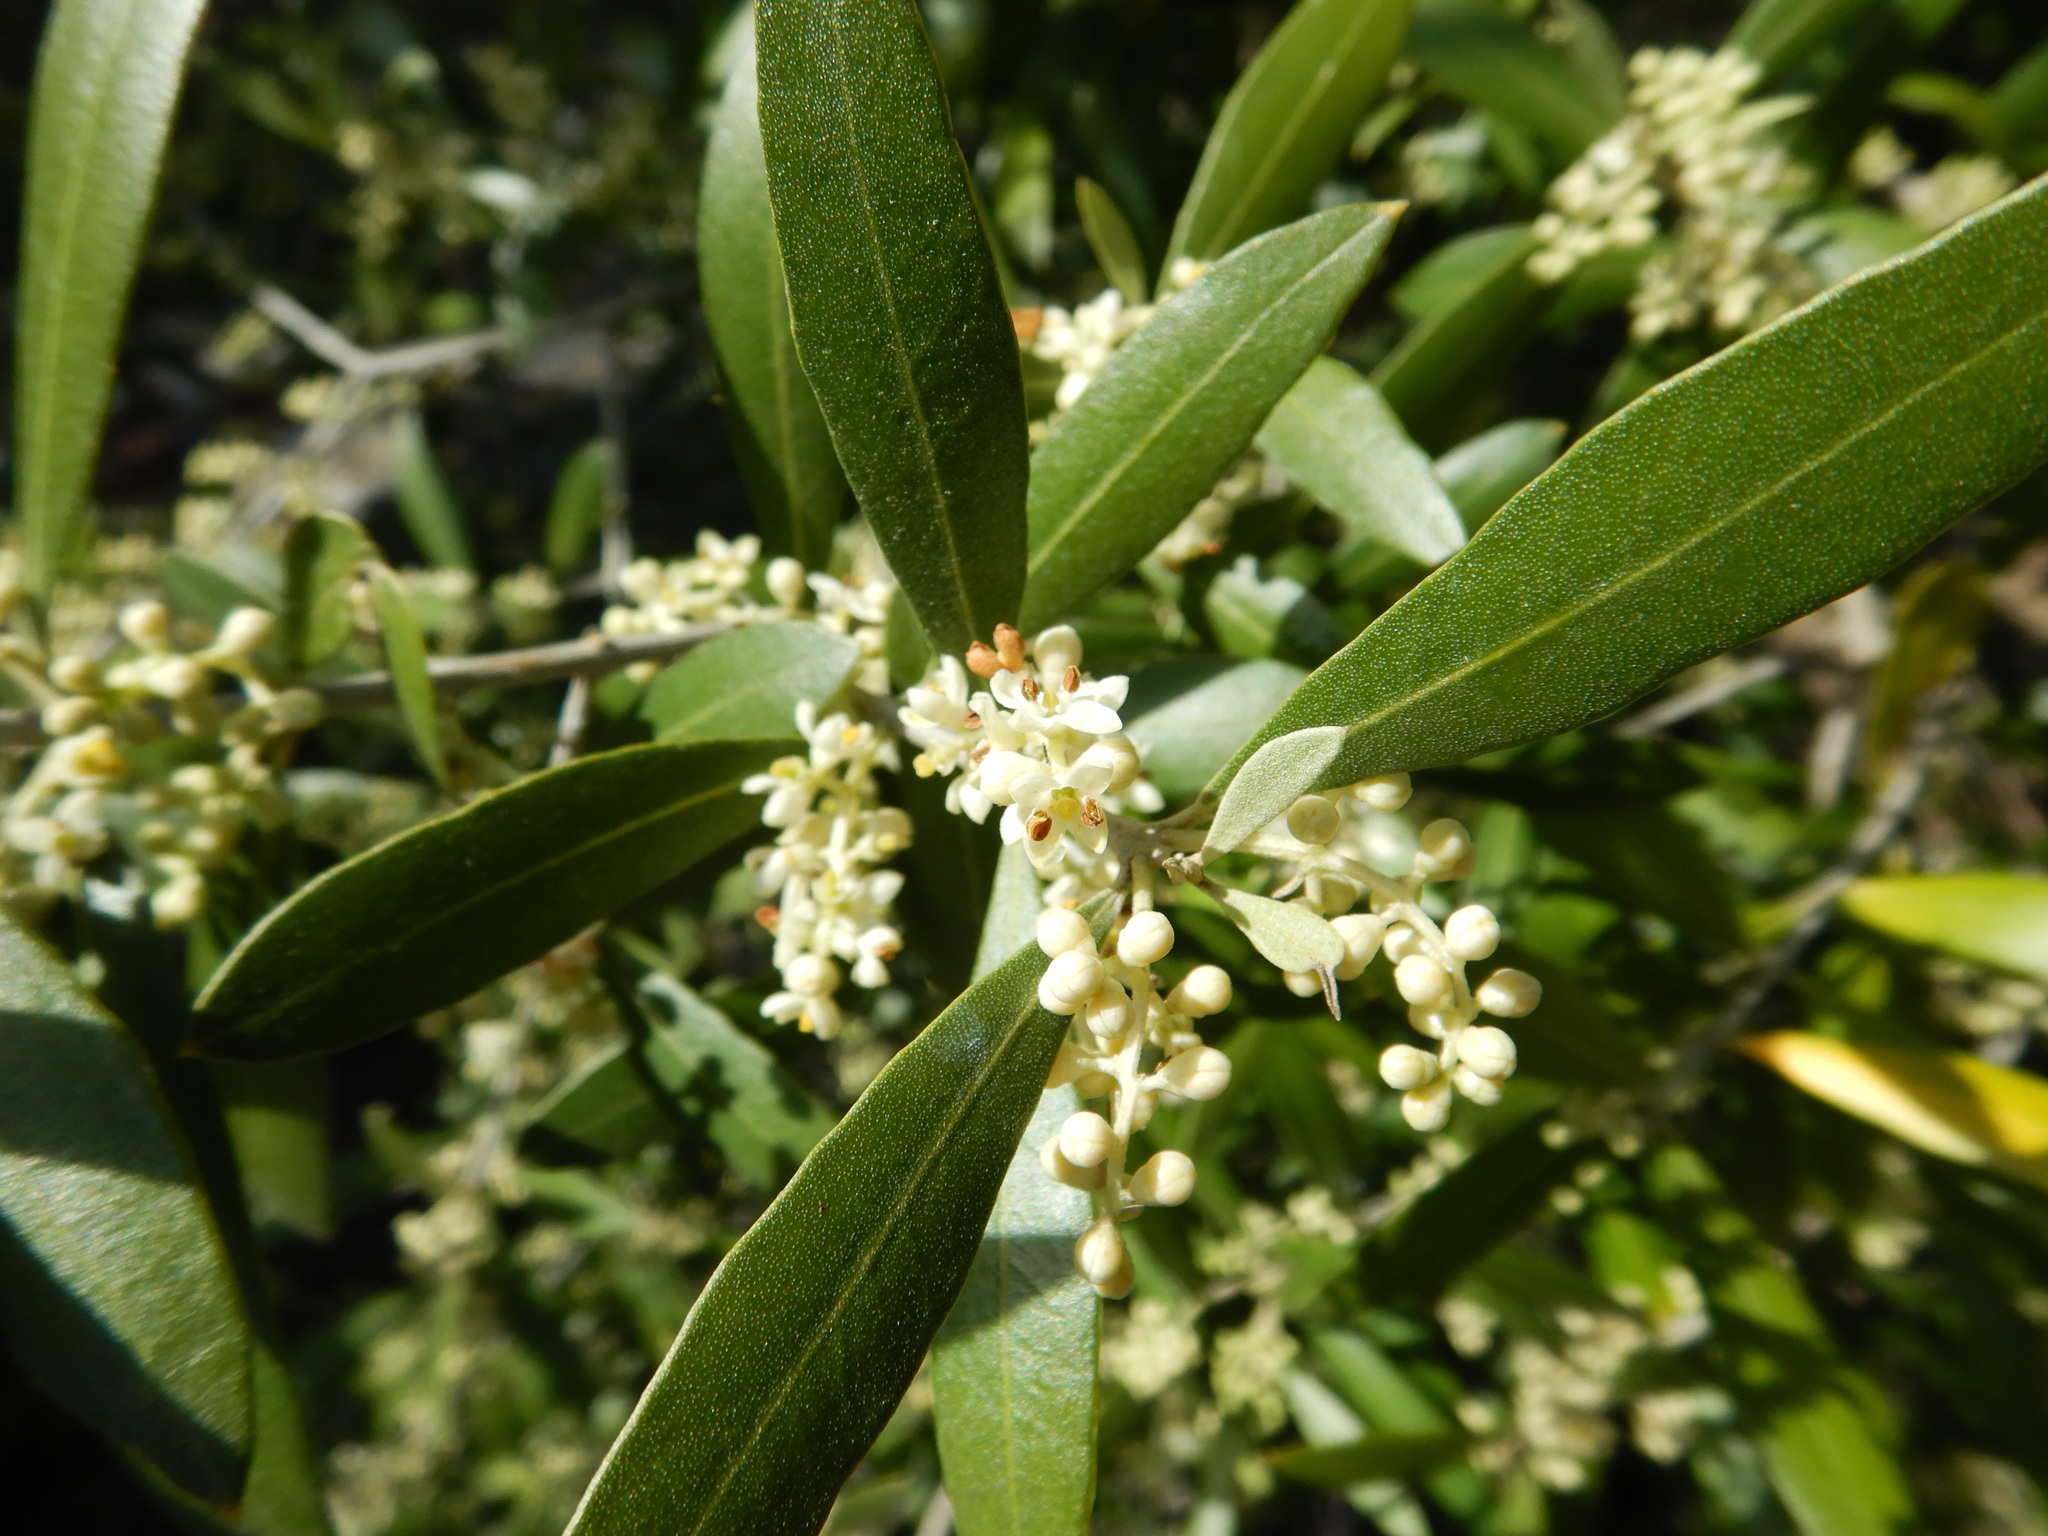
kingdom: Plantae
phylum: Tracheophyta
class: Magnoliopsida
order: Lamiales
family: Oleaceae
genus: Olea
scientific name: Olea europaea
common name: Olive
